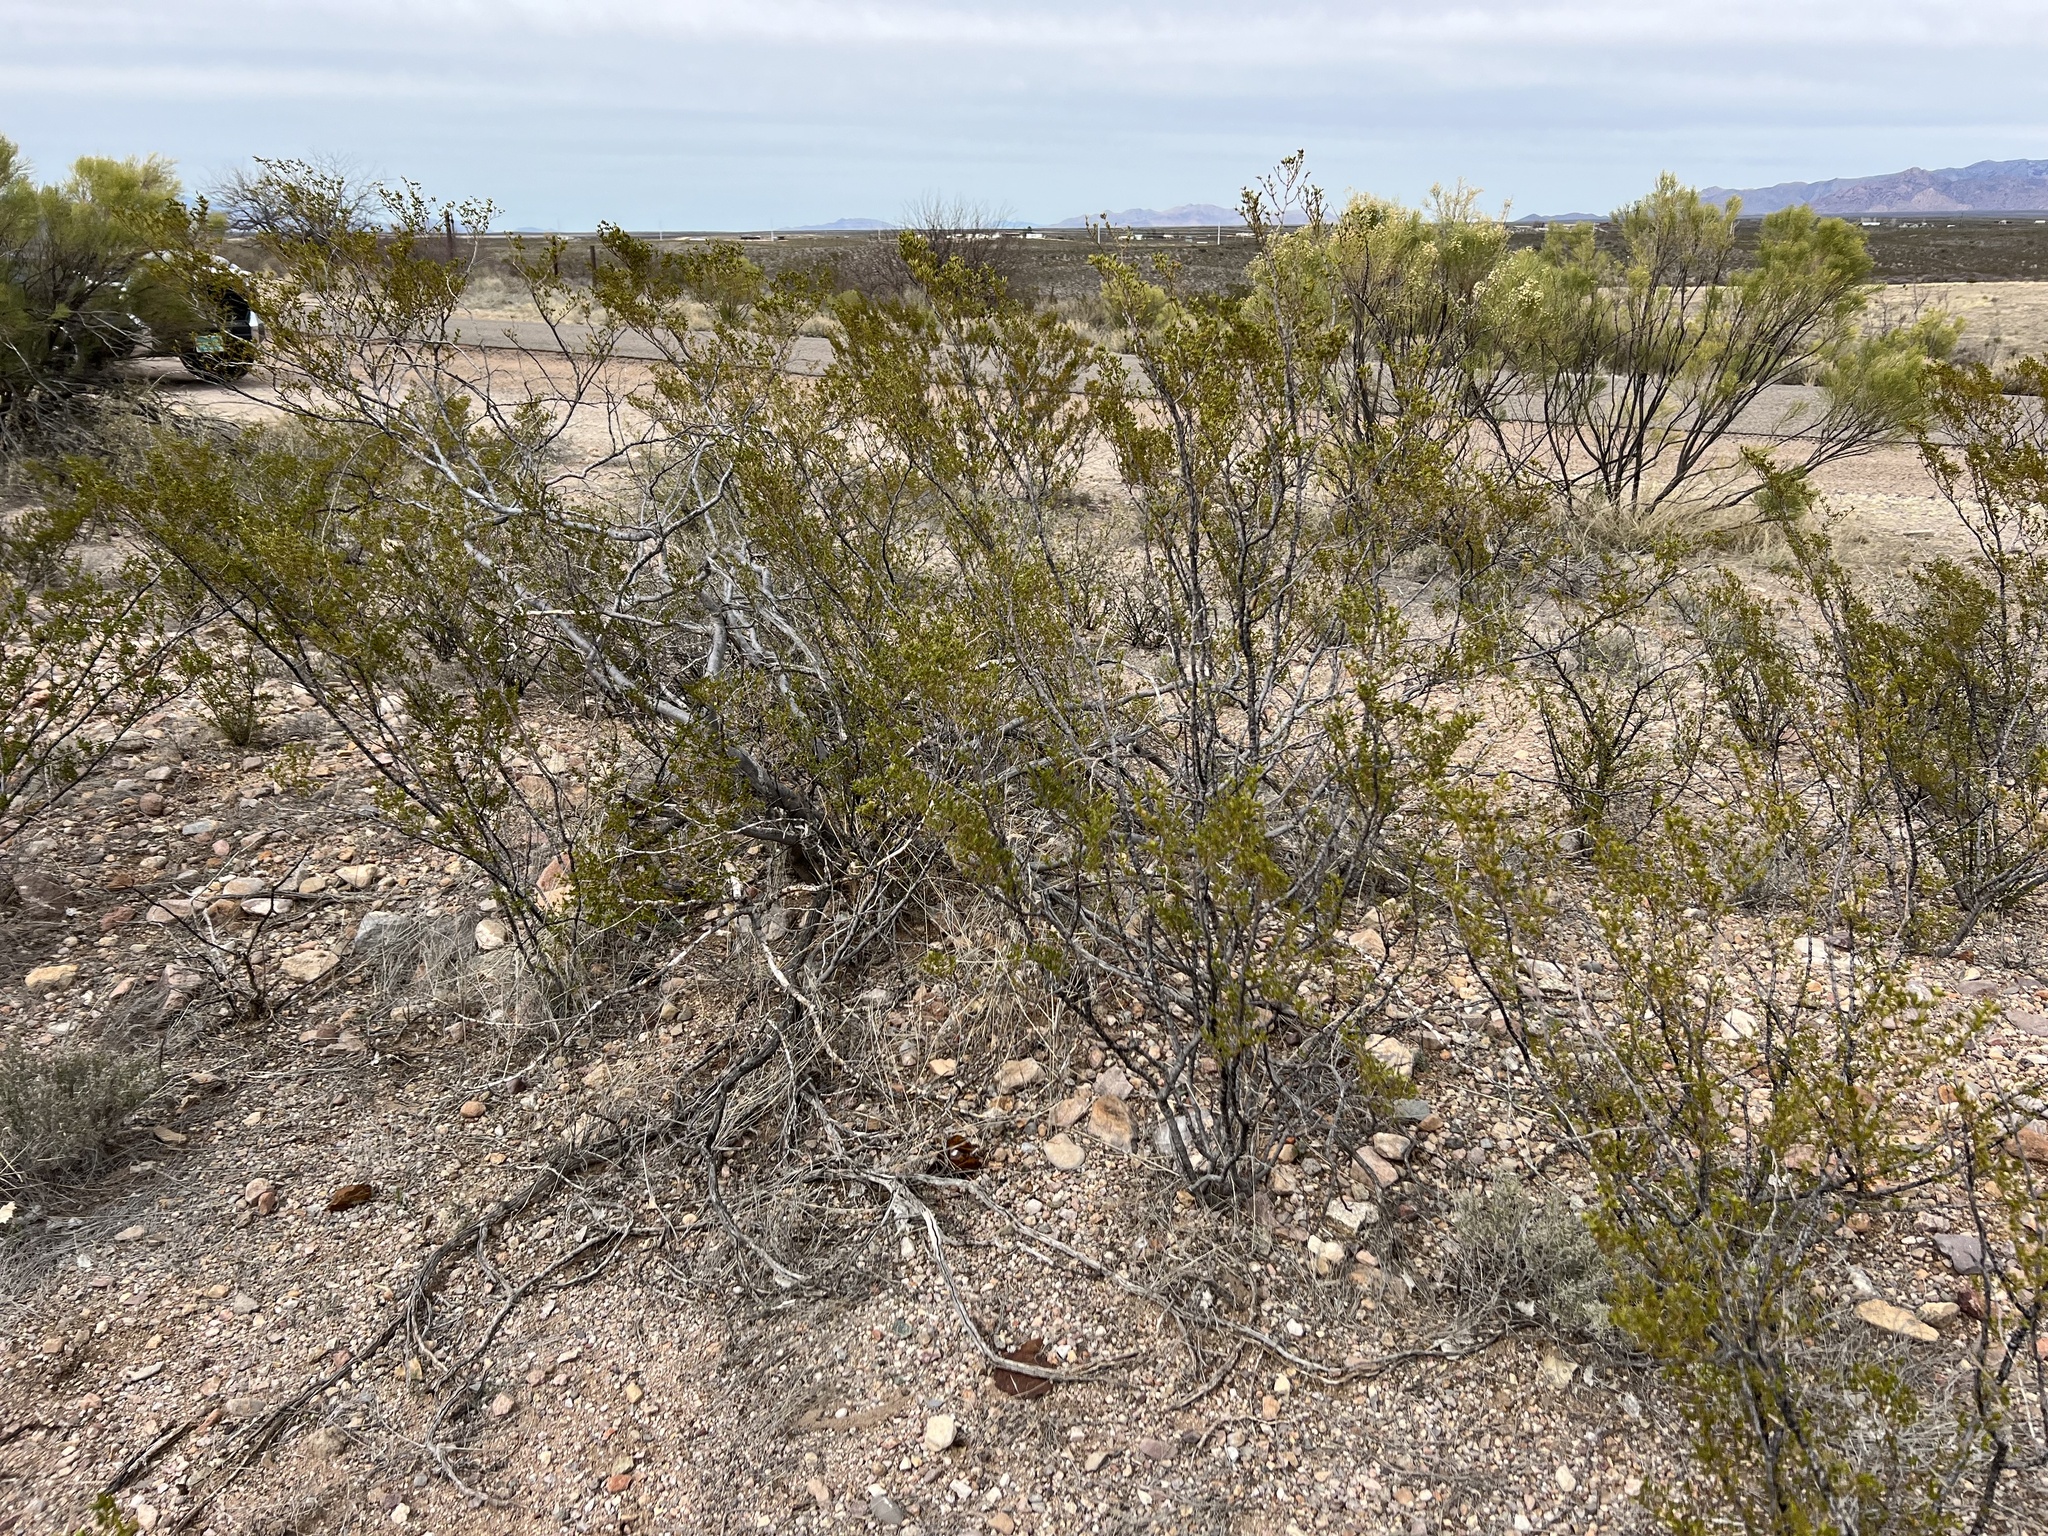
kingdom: Plantae
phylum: Tracheophyta
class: Magnoliopsida
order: Zygophyllales
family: Zygophyllaceae
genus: Larrea
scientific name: Larrea tridentata
